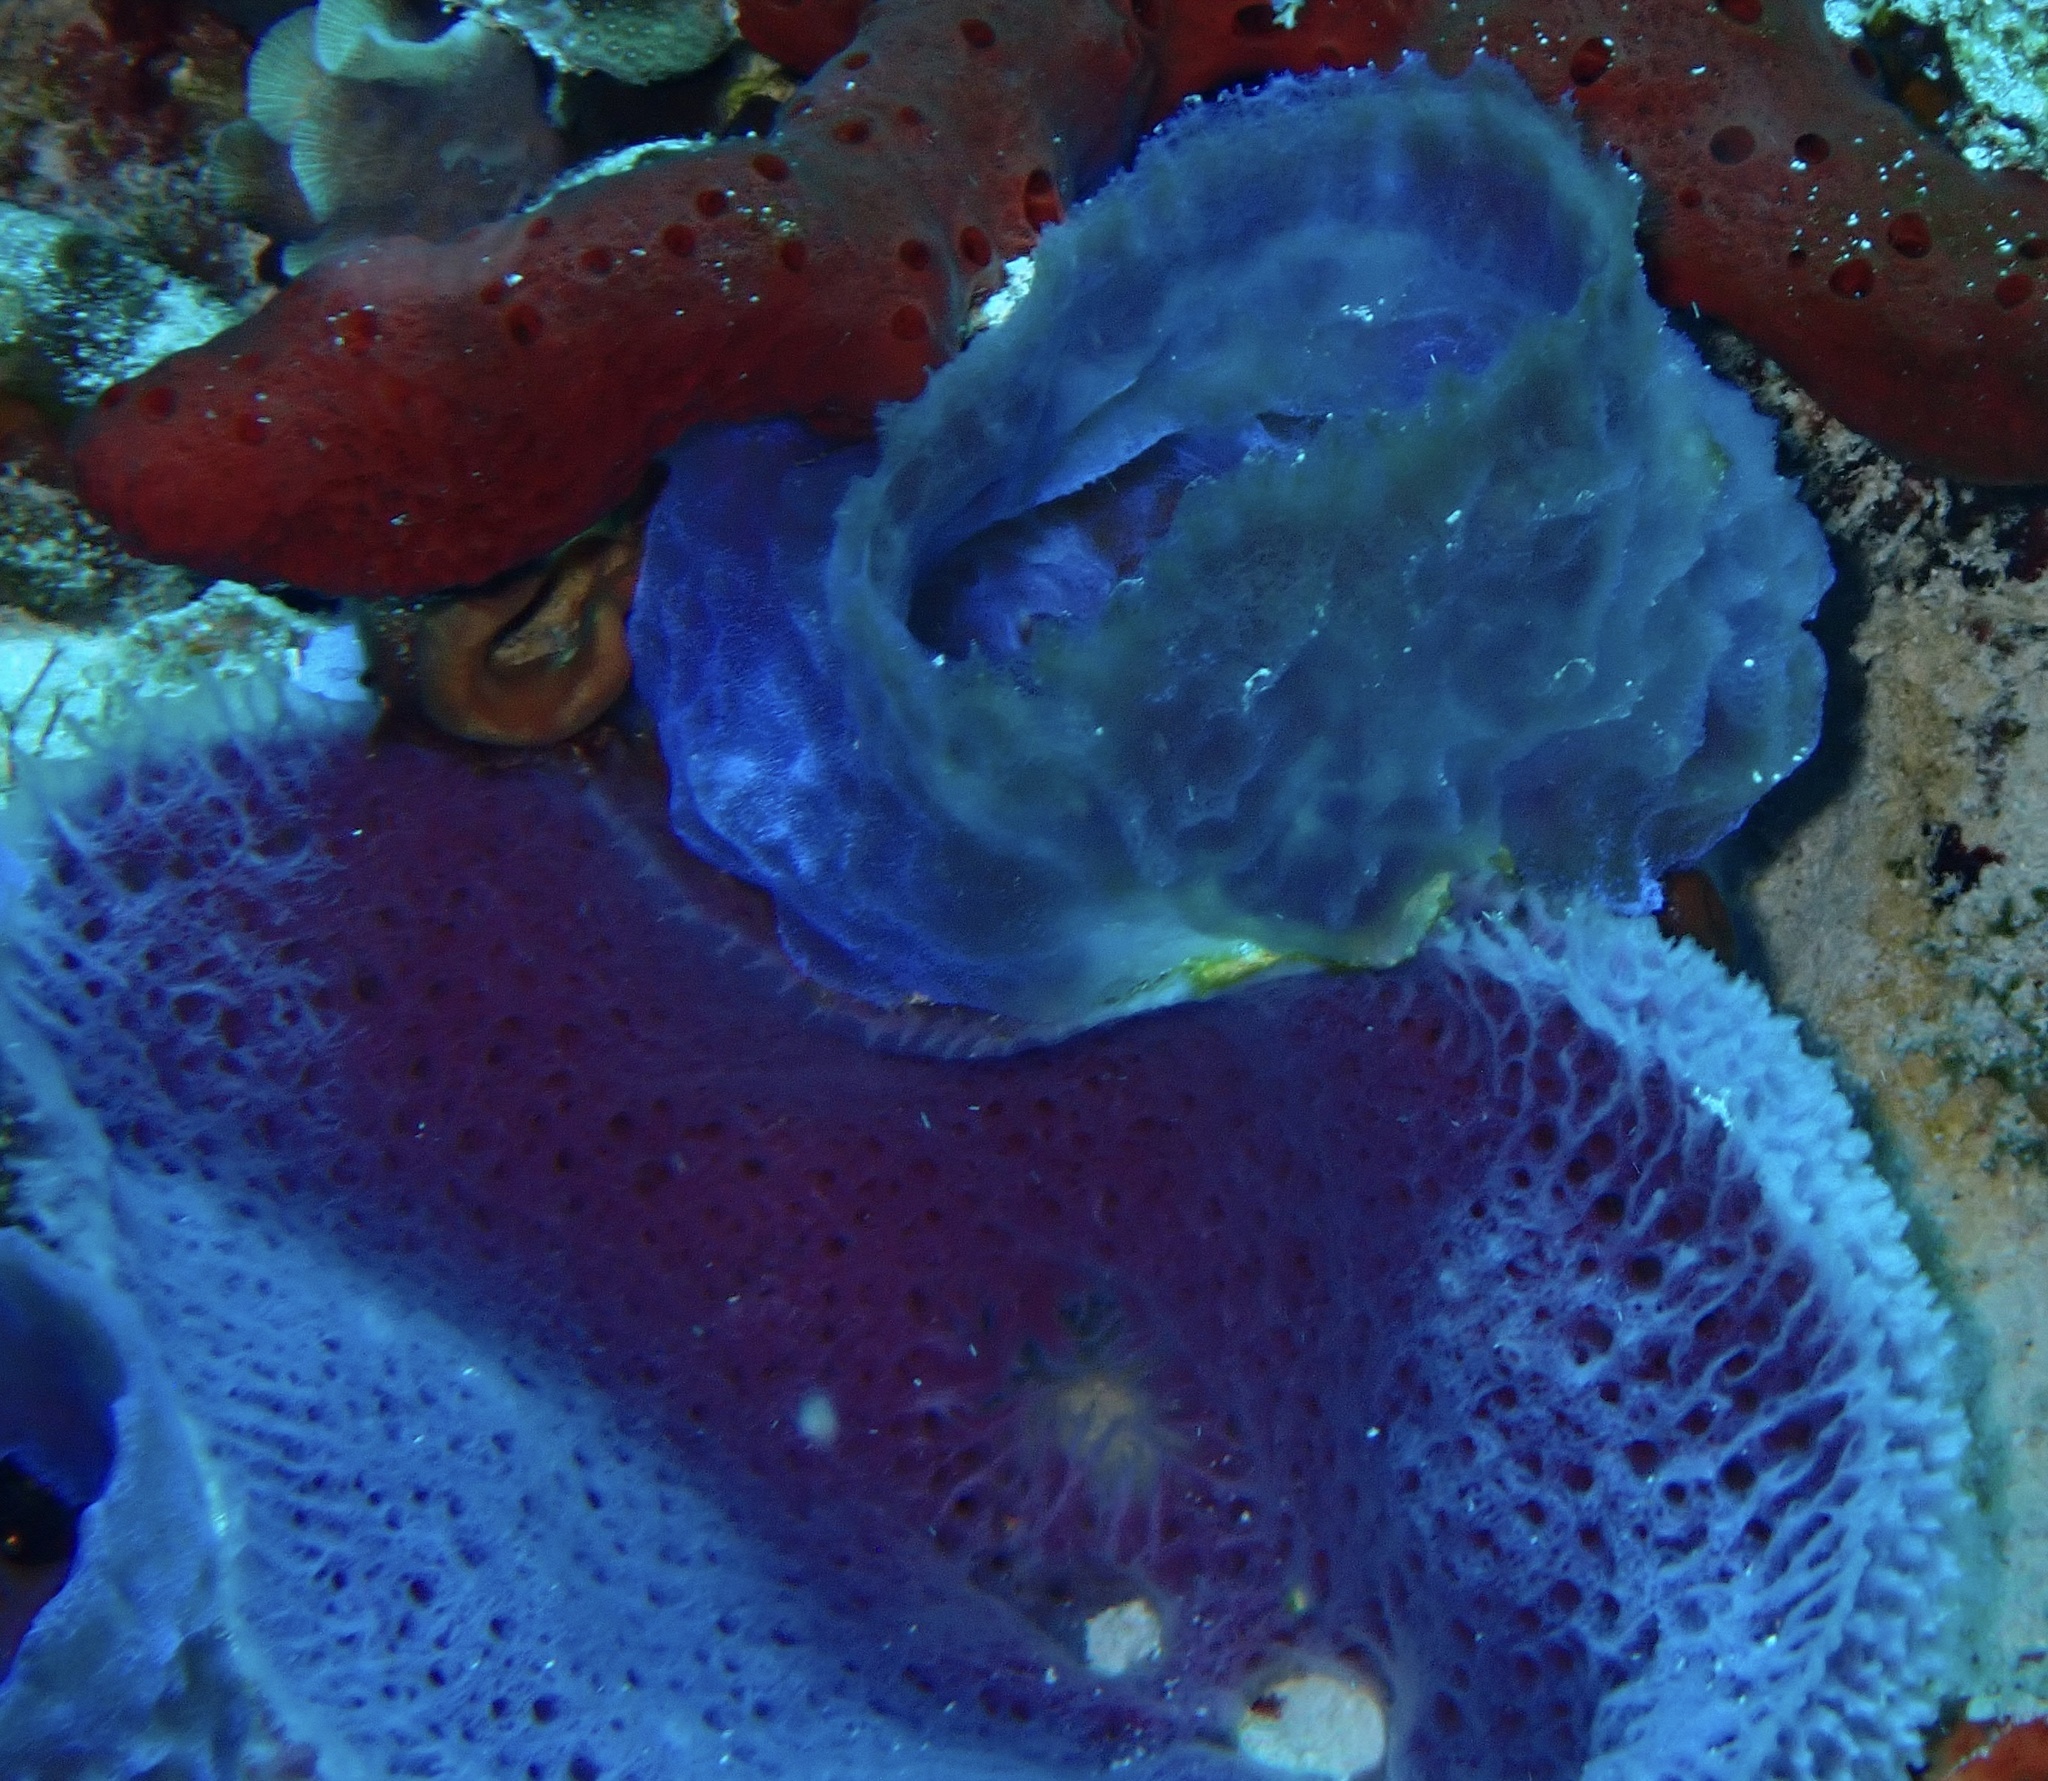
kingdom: Animalia
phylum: Porifera
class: Demospongiae
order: Haplosclerida
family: Niphatidae
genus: Niphates
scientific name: Niphates digitalis
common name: Pink vase sponge
